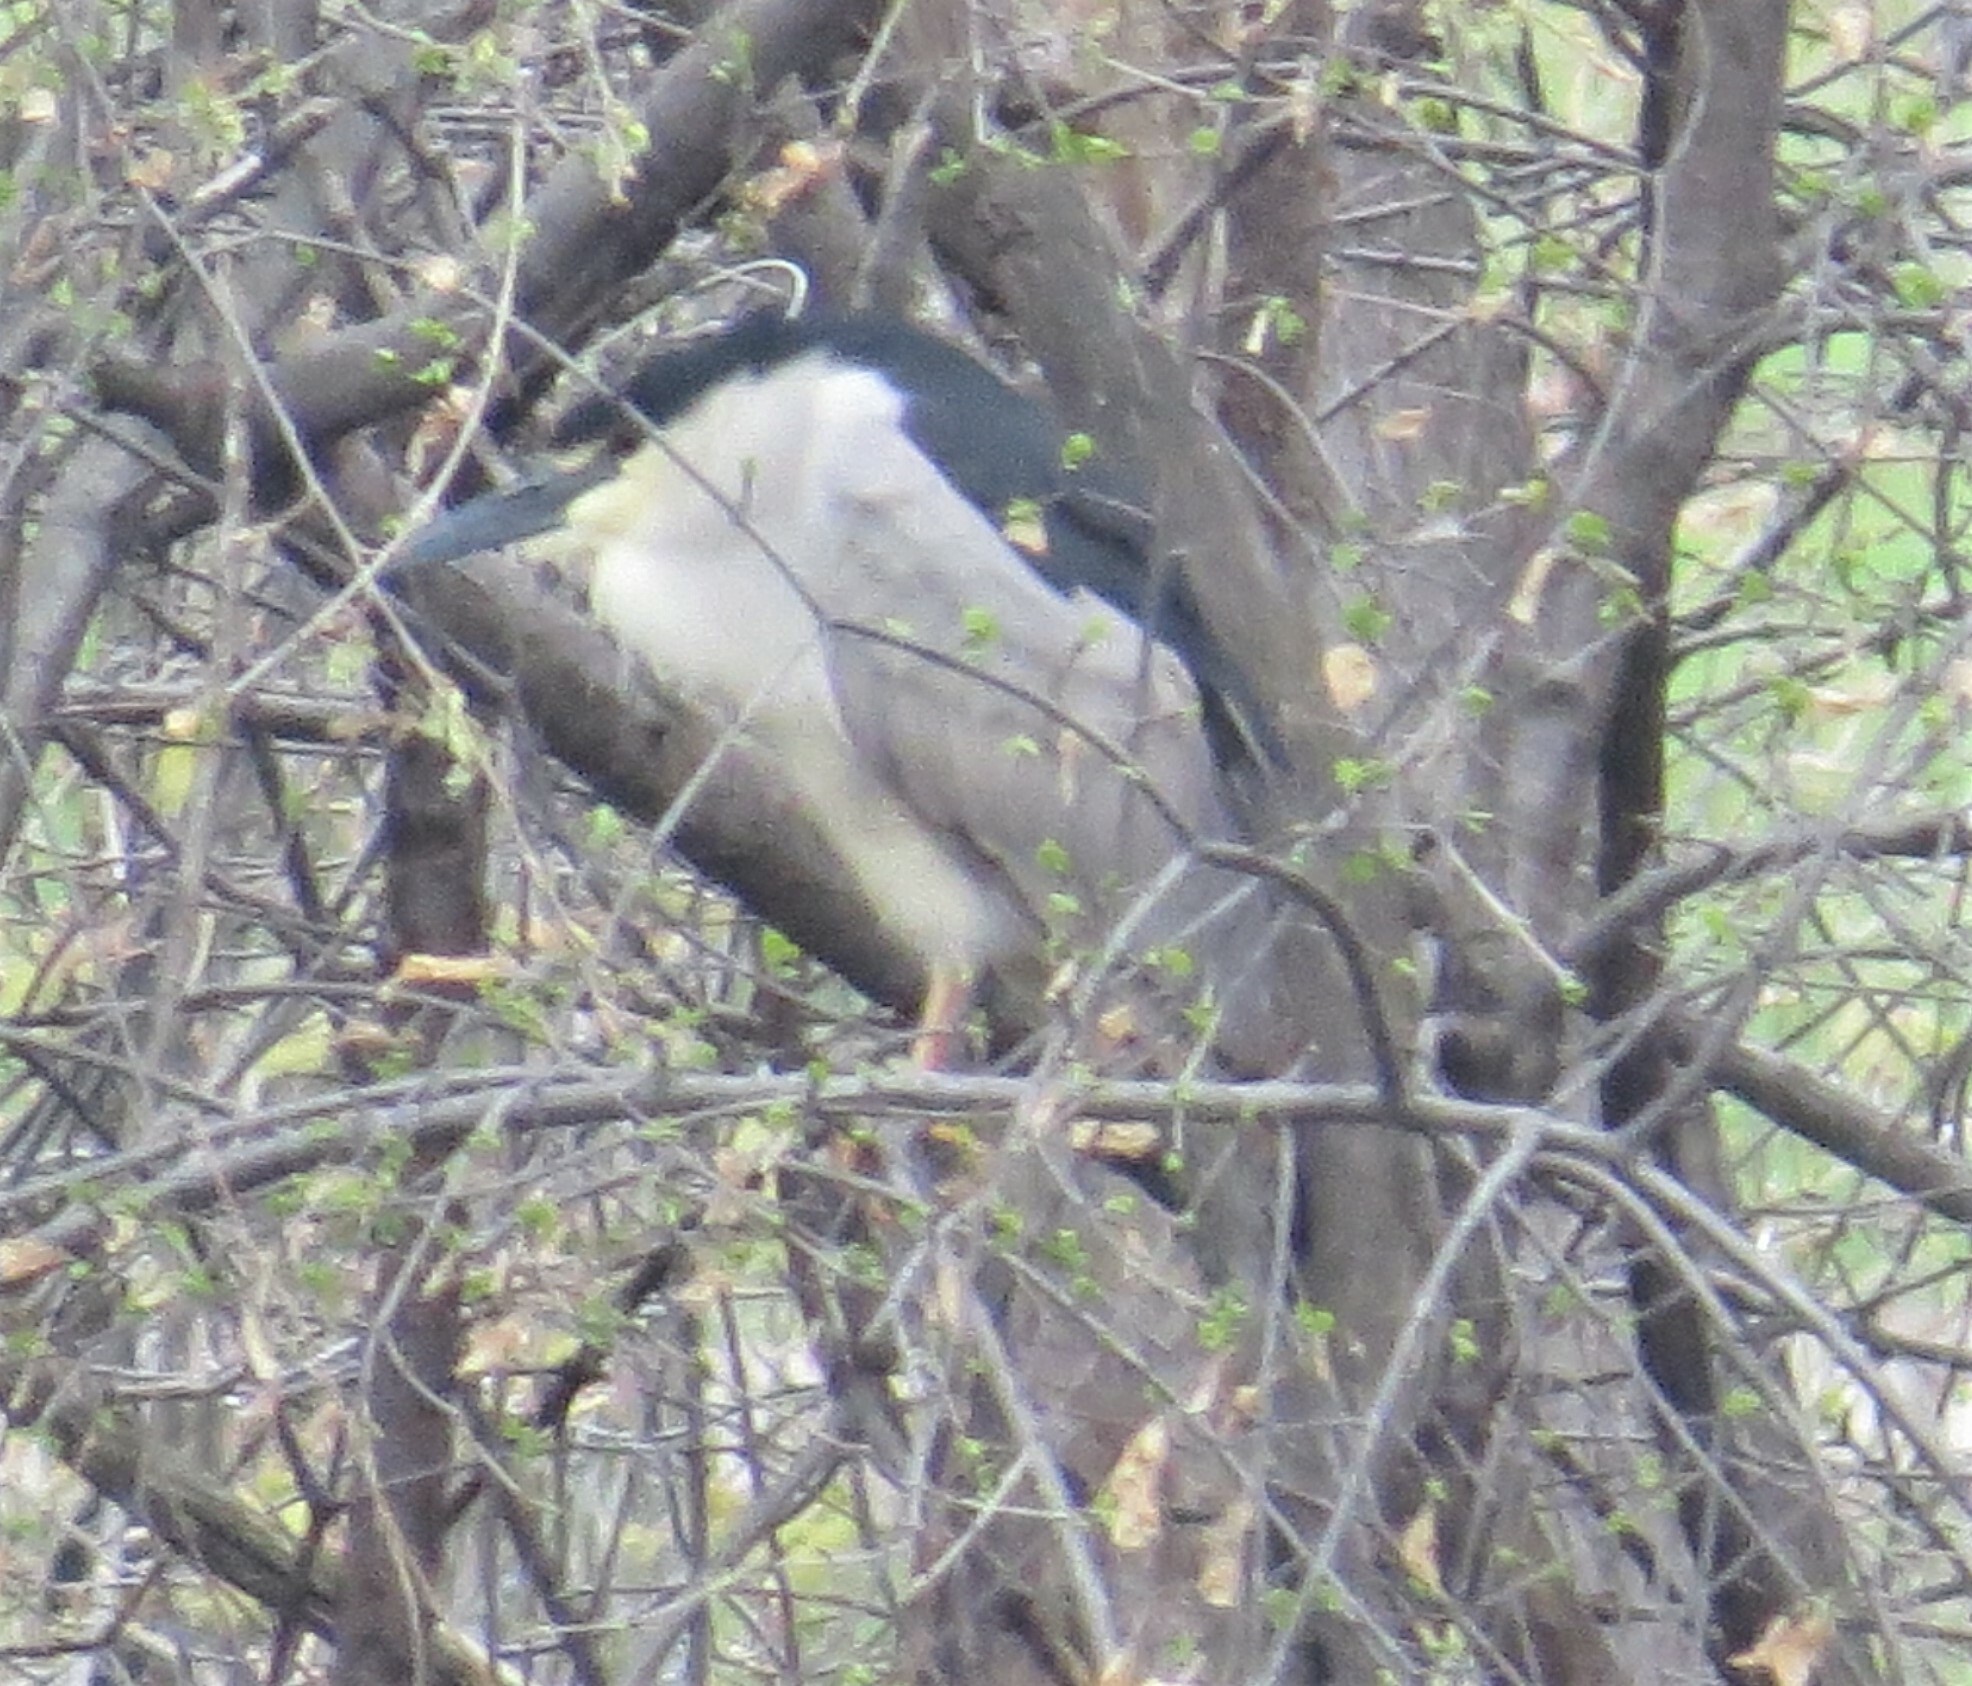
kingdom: Animalia
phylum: Chordata
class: Aves
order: Pelecaniformes
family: Ardeidae
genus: Nycticorax
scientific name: Nycticorax nycticorax
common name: Black-crowned night heron
